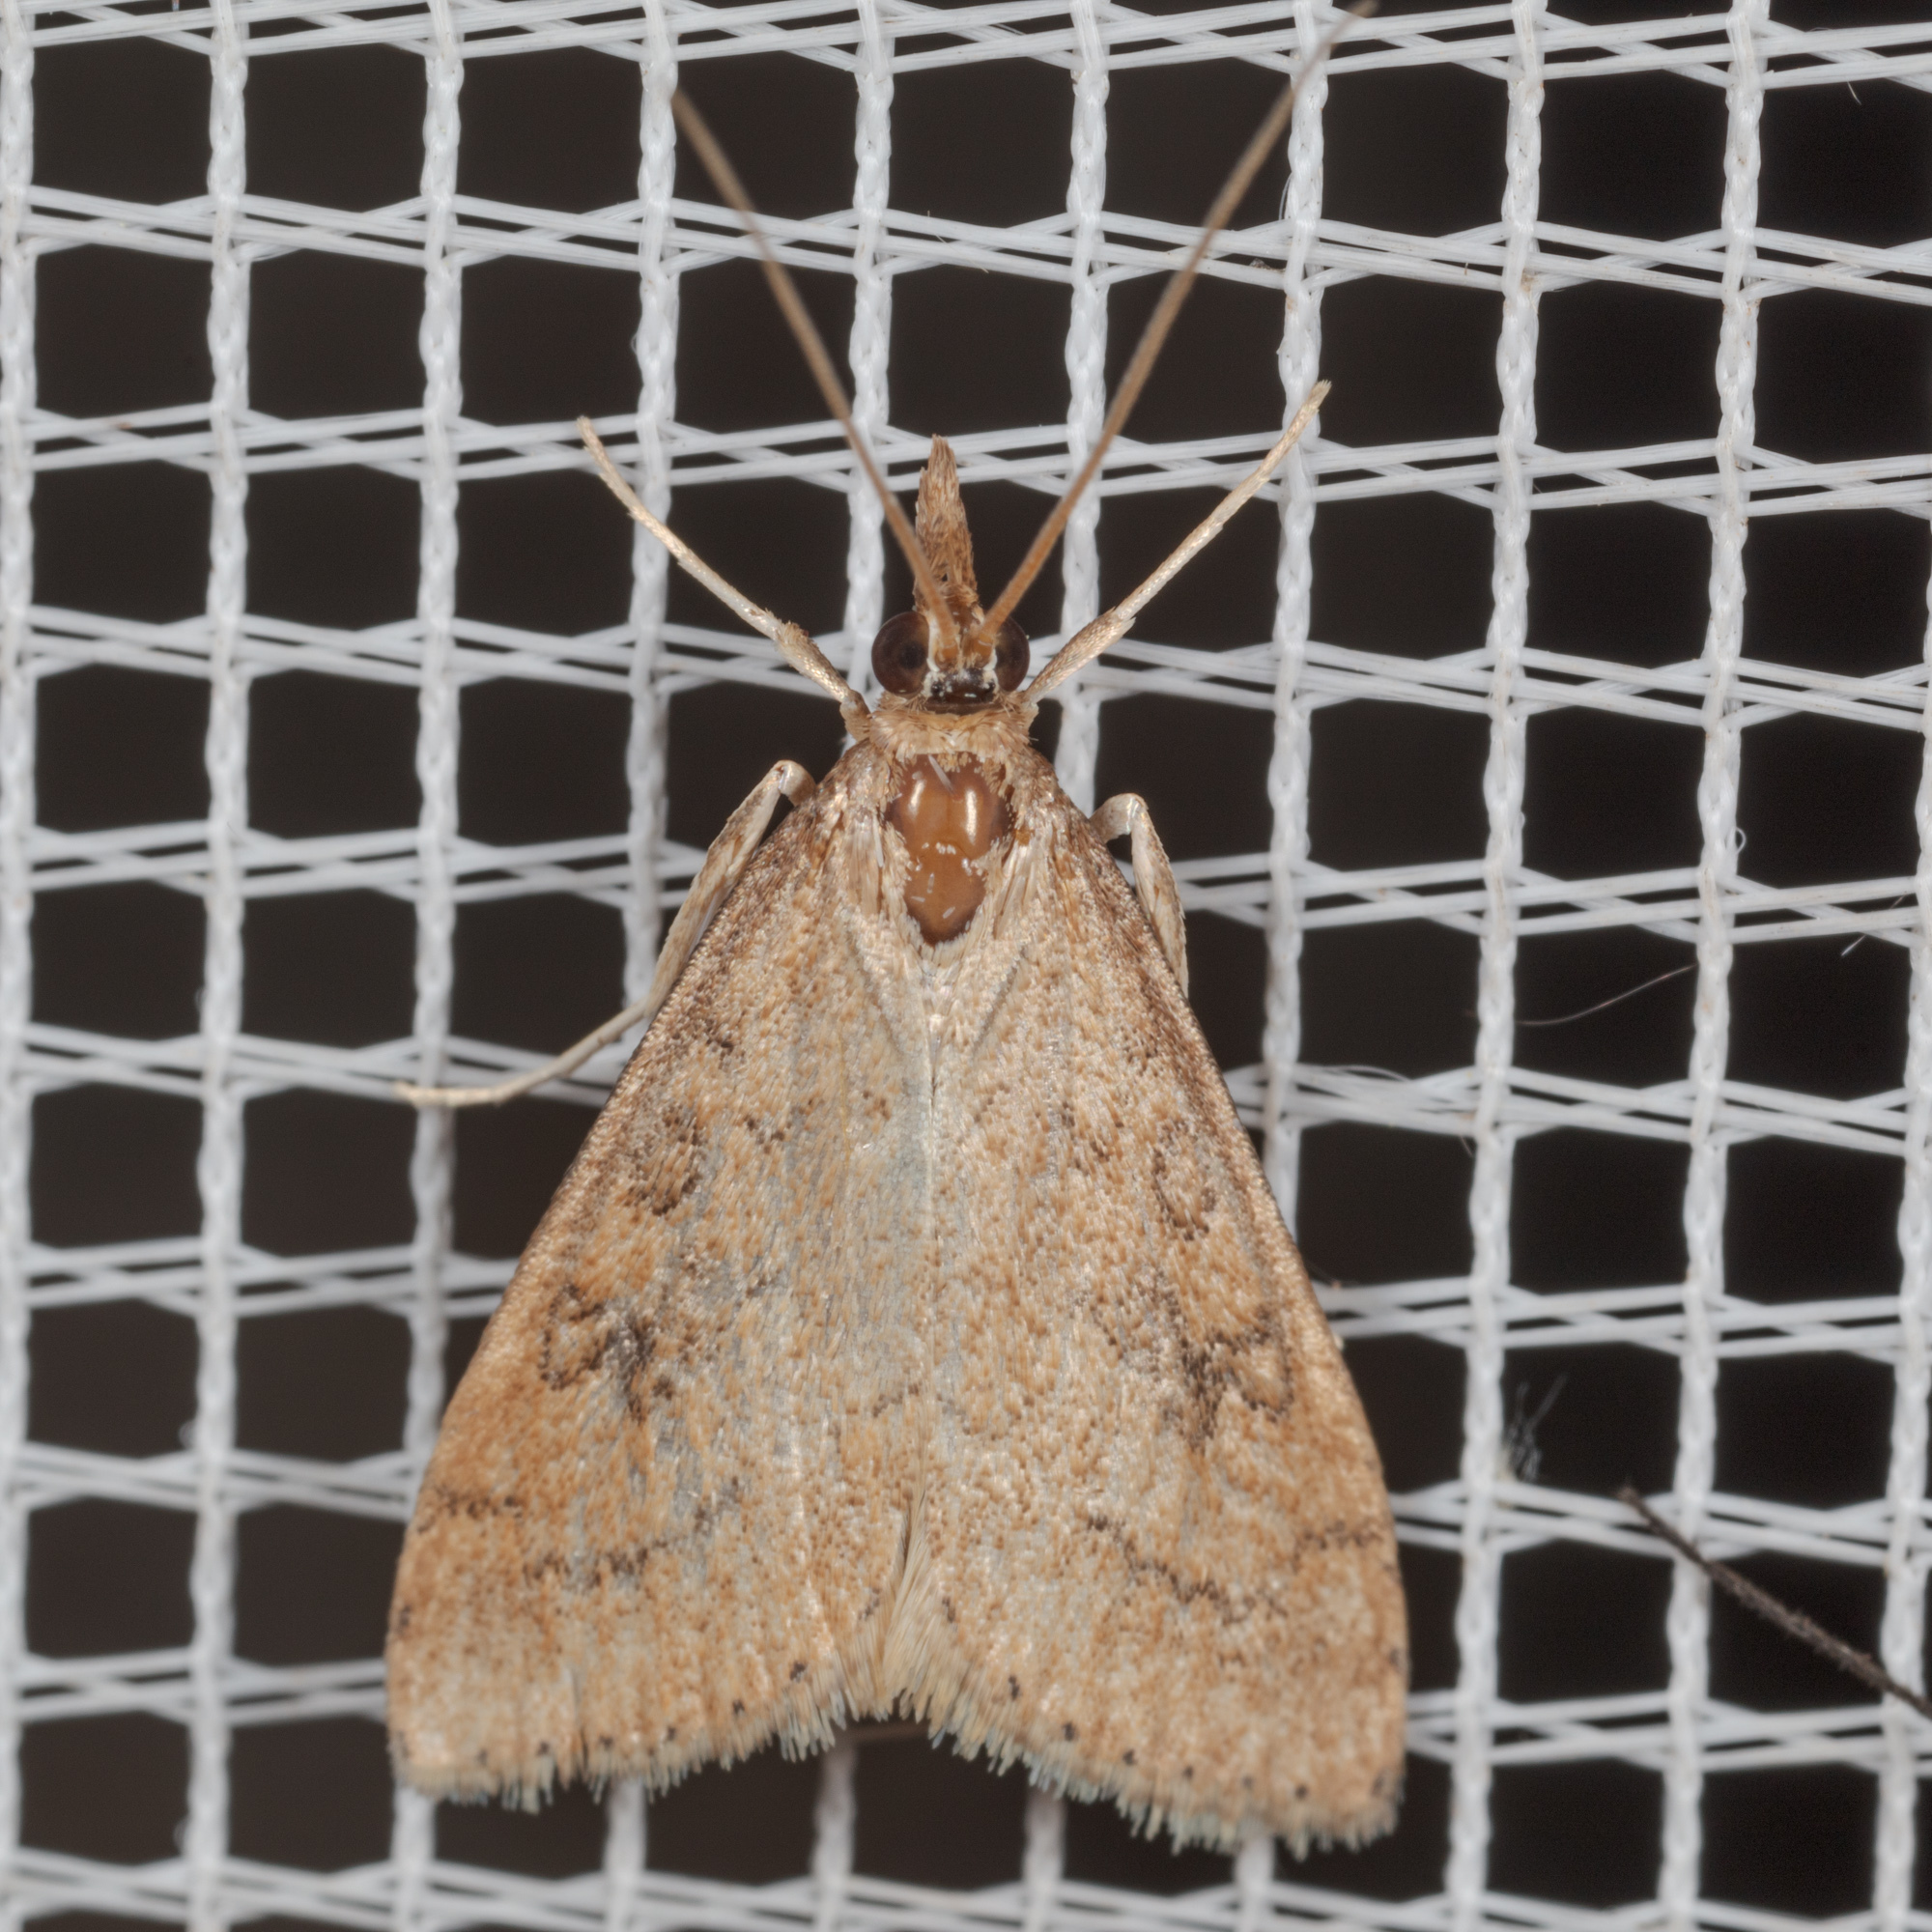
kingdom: Animalia
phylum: Arthropoda
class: Insecta
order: Lepidoptera
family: Crambidae
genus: Udea
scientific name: Udea rubigalis
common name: Celery leaftier moth
